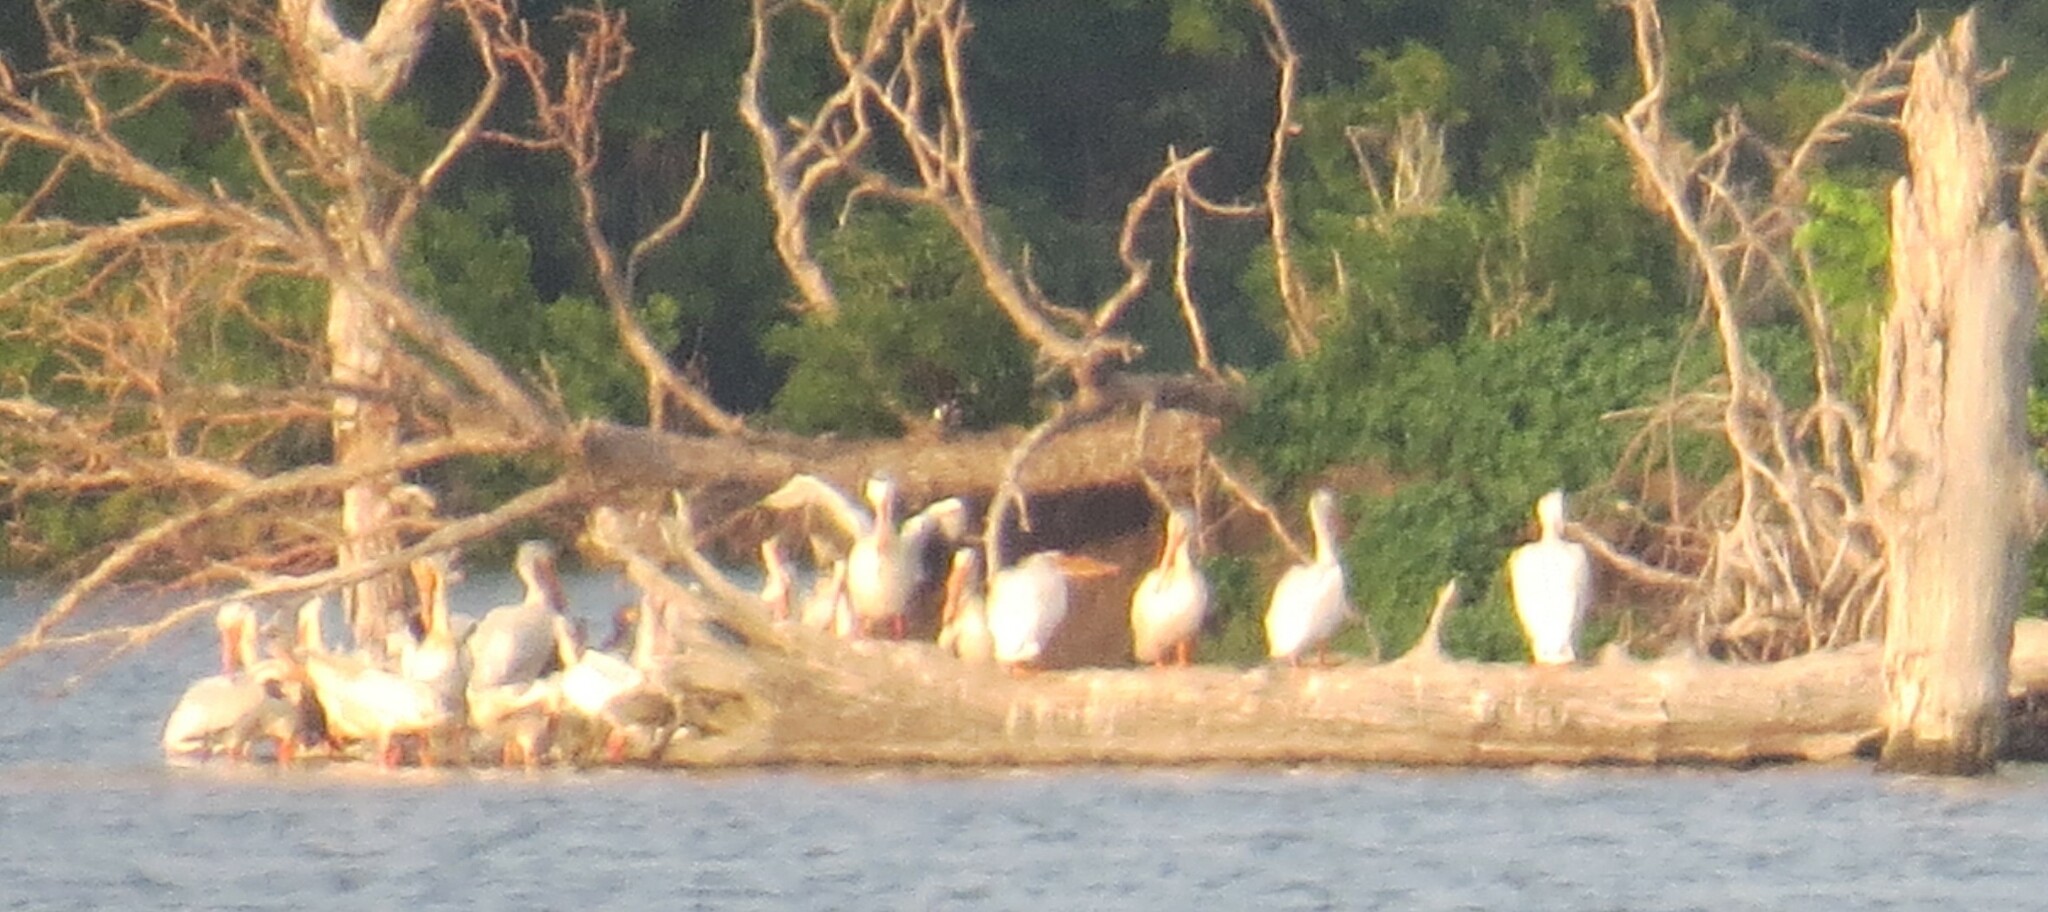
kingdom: Animalia
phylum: Chordata
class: Aves
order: Pelecaniformes
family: Pelecanidae
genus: Pelecanus
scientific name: Pelecanus erythrorhynchos
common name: American white pelican
